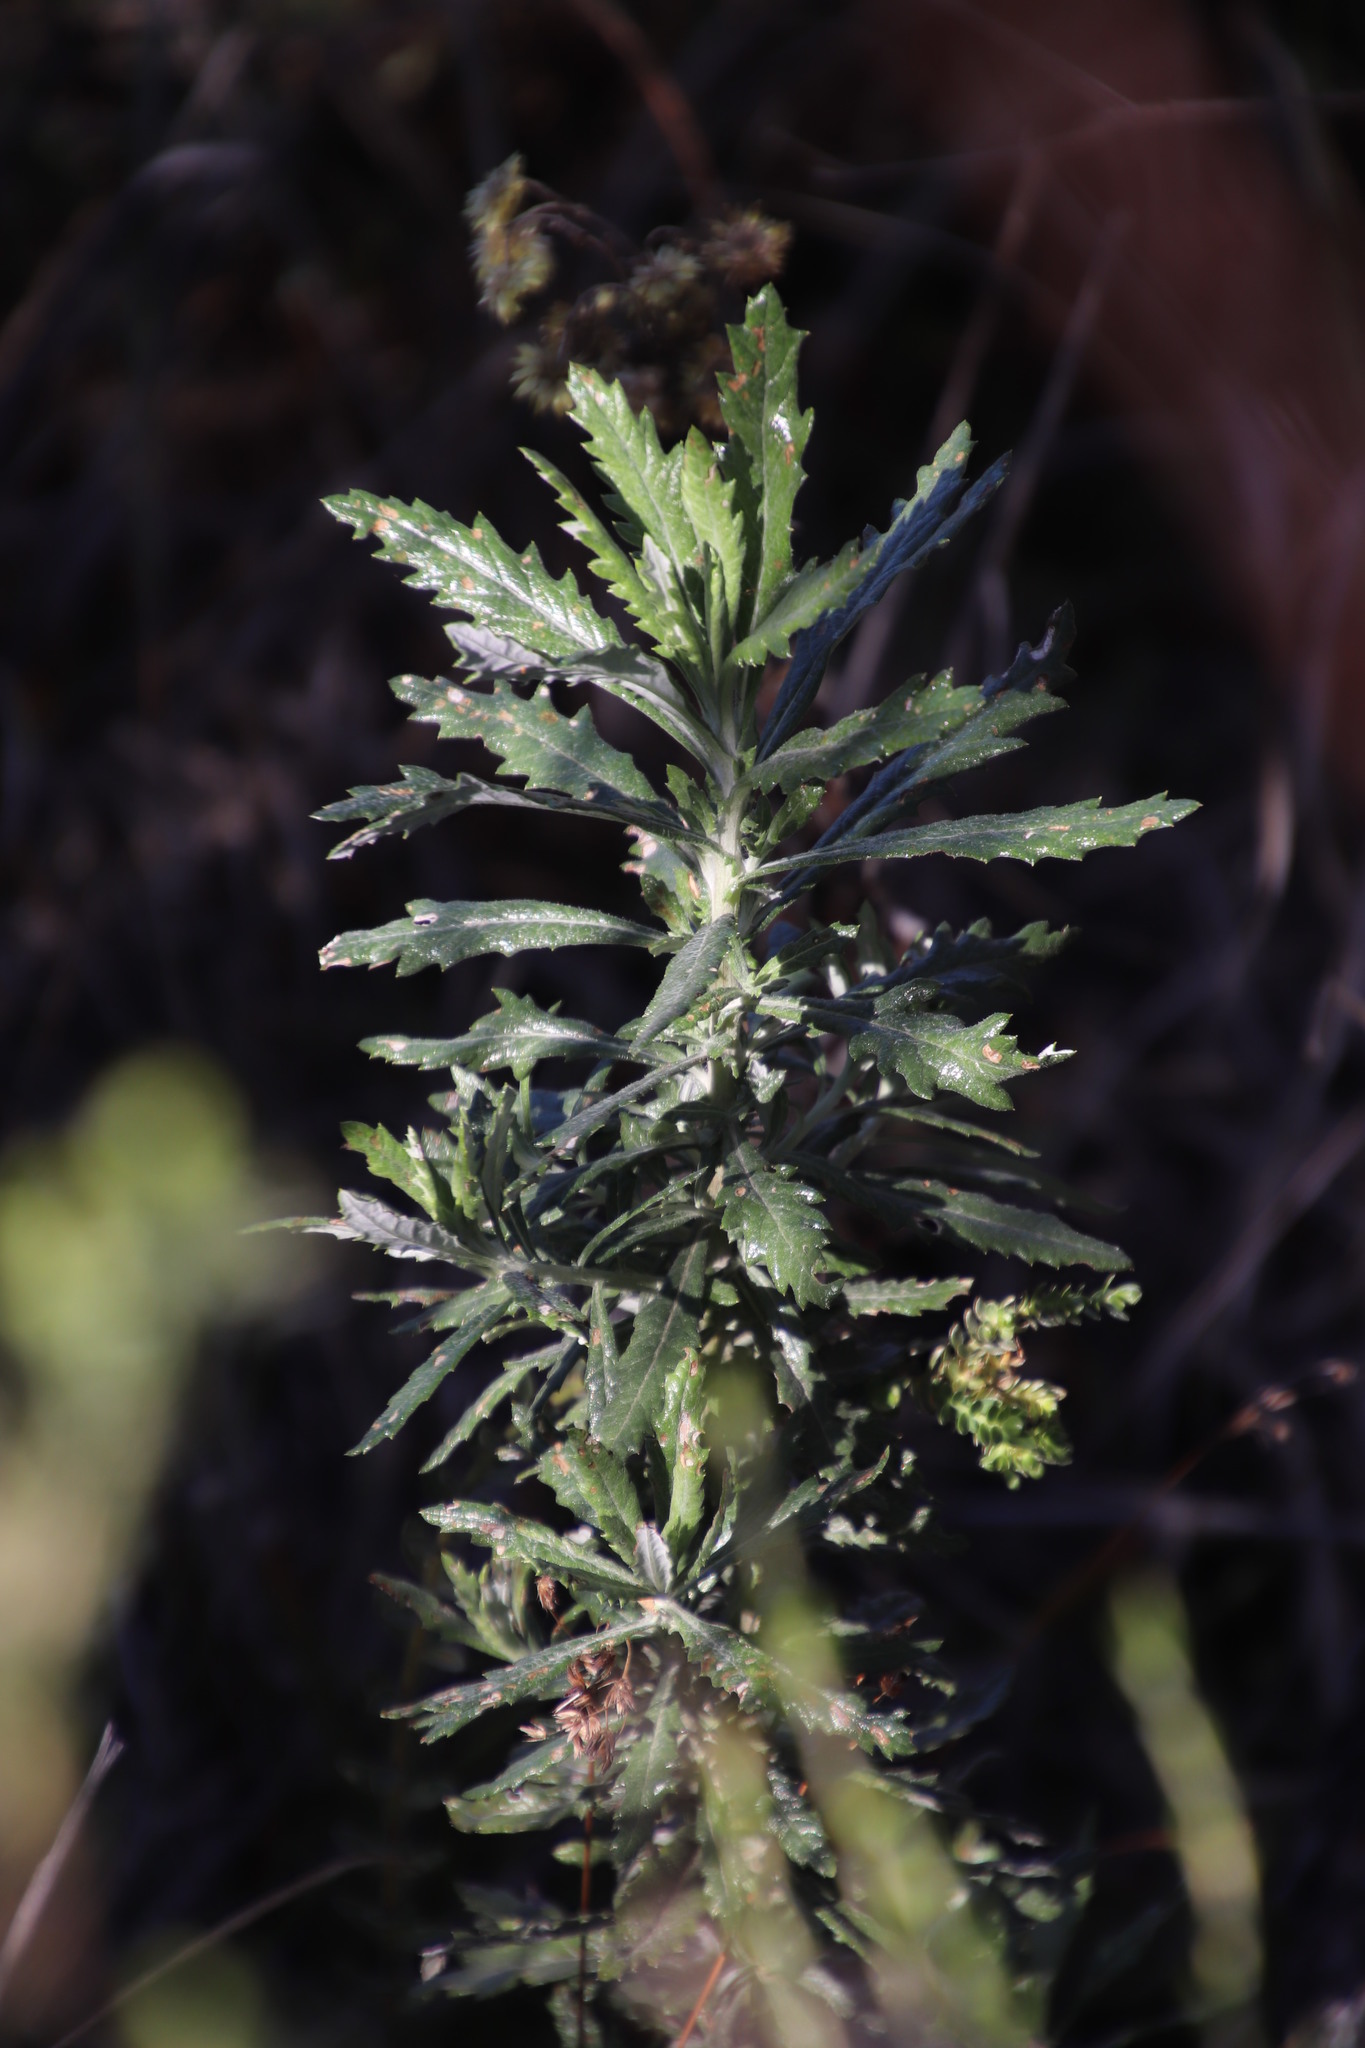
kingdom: Plantae
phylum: Tracheophyta
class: Magnoliopsida
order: Asterales
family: Asteraceae
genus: Senecio
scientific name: Senecio pterophorus
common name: Shoddy ragwort
